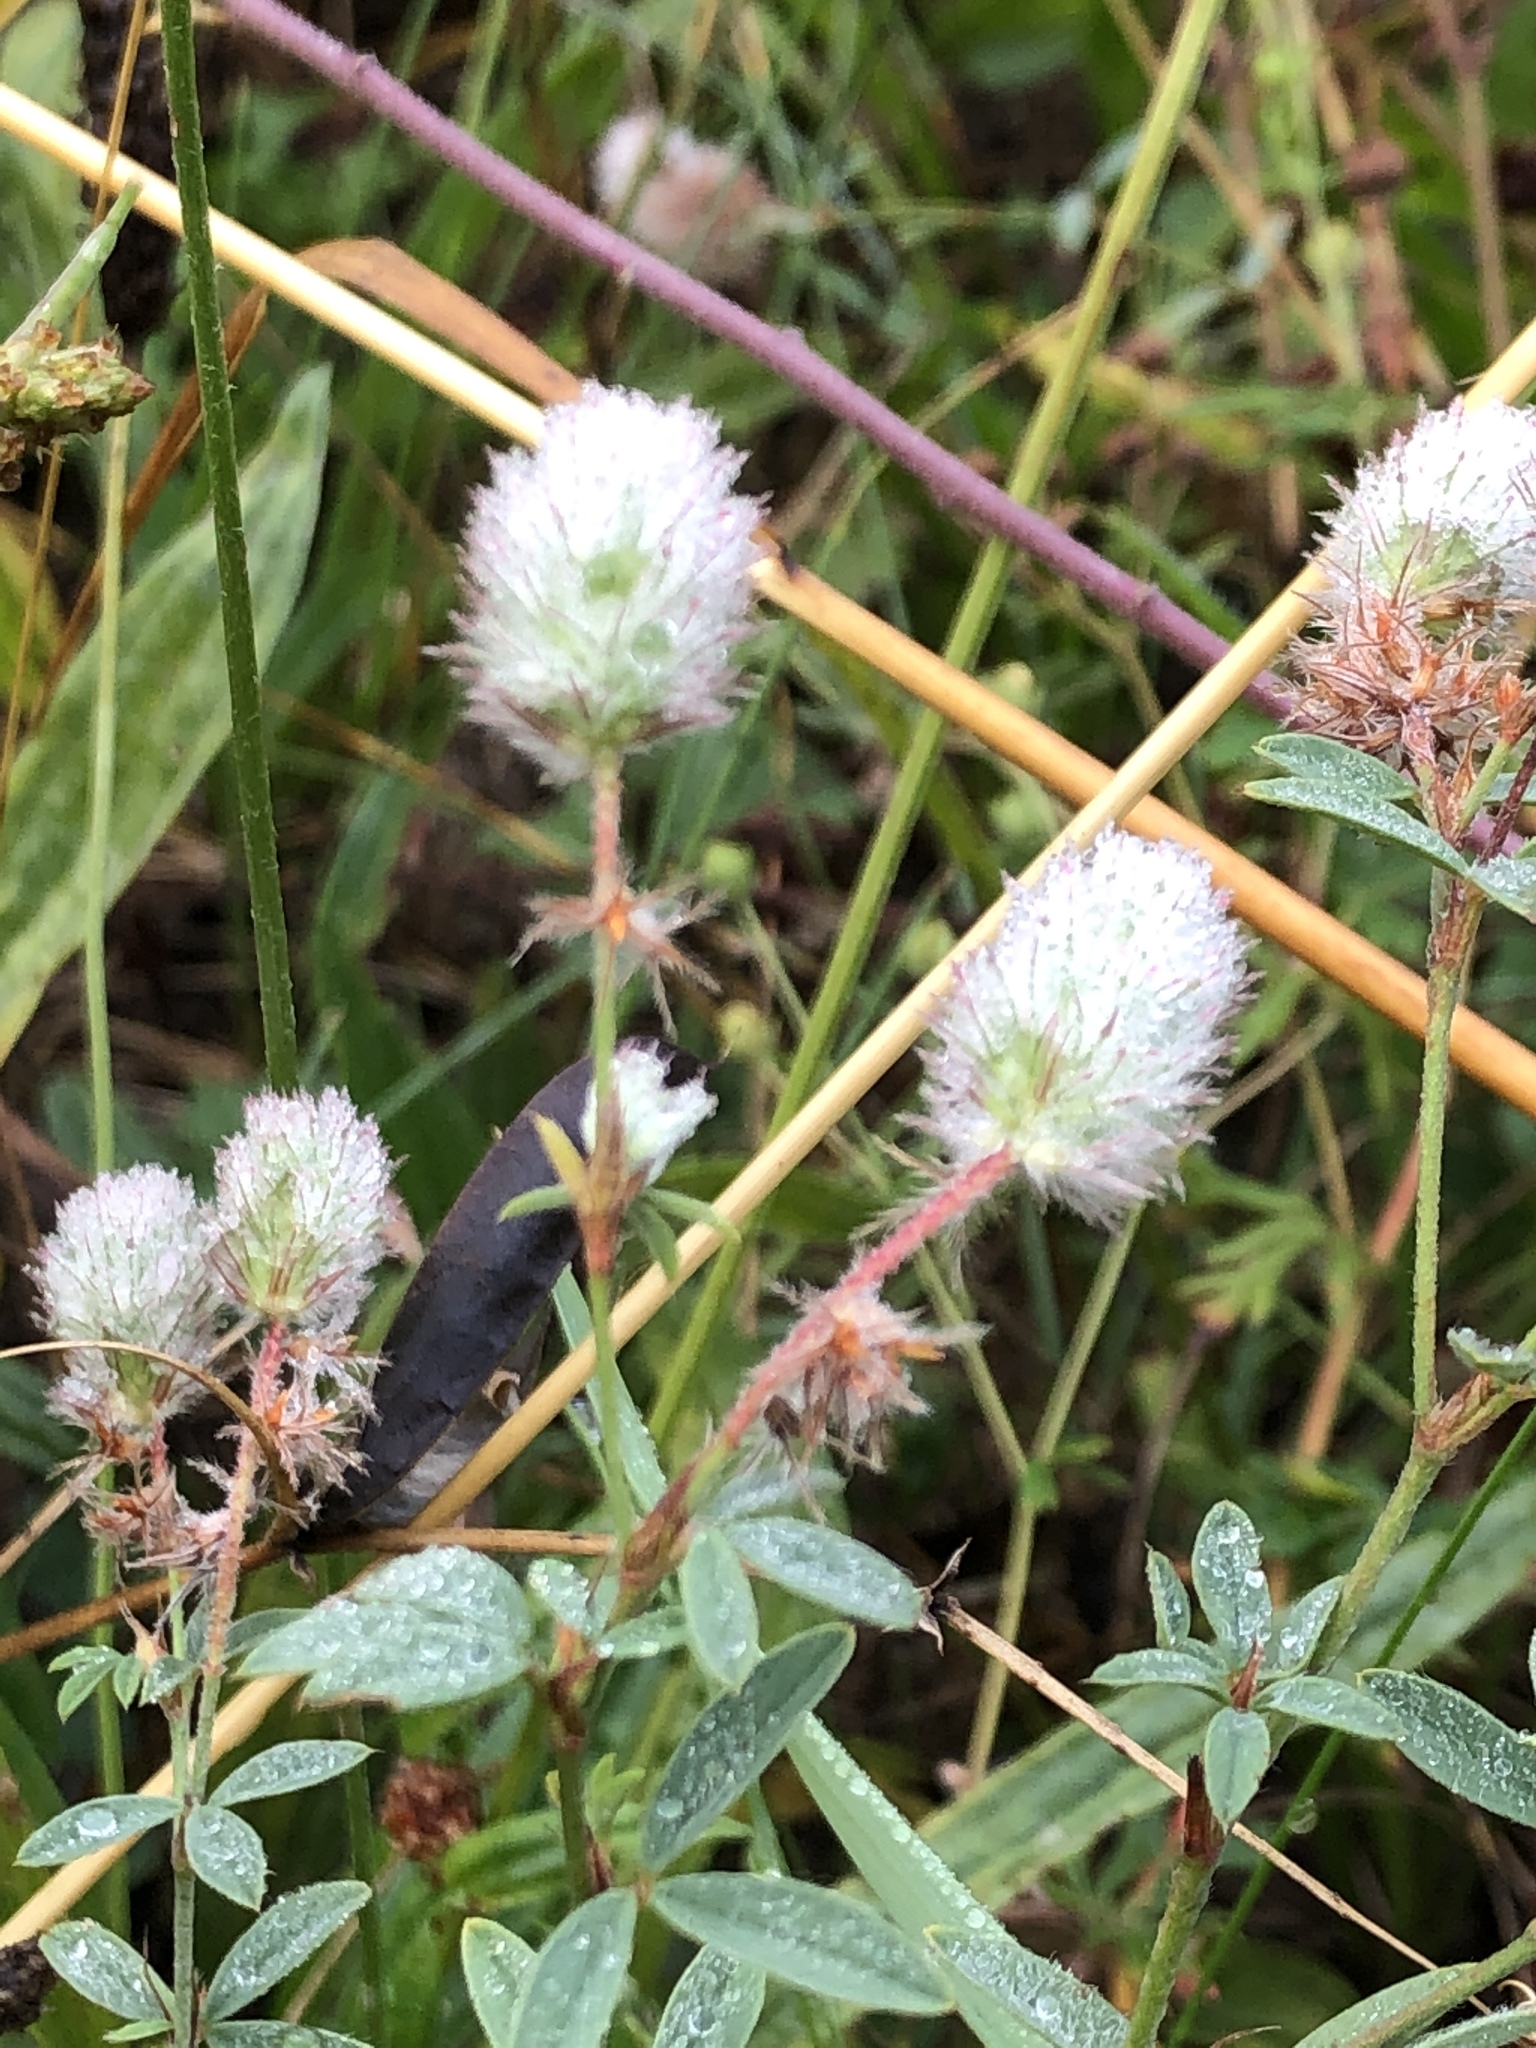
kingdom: Plantae
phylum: Tracheophyta
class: Magnoliopsida
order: Fabales
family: Fabaceae
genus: Trifolium
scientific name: Trifolium arvense
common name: Hare's-foot clover
